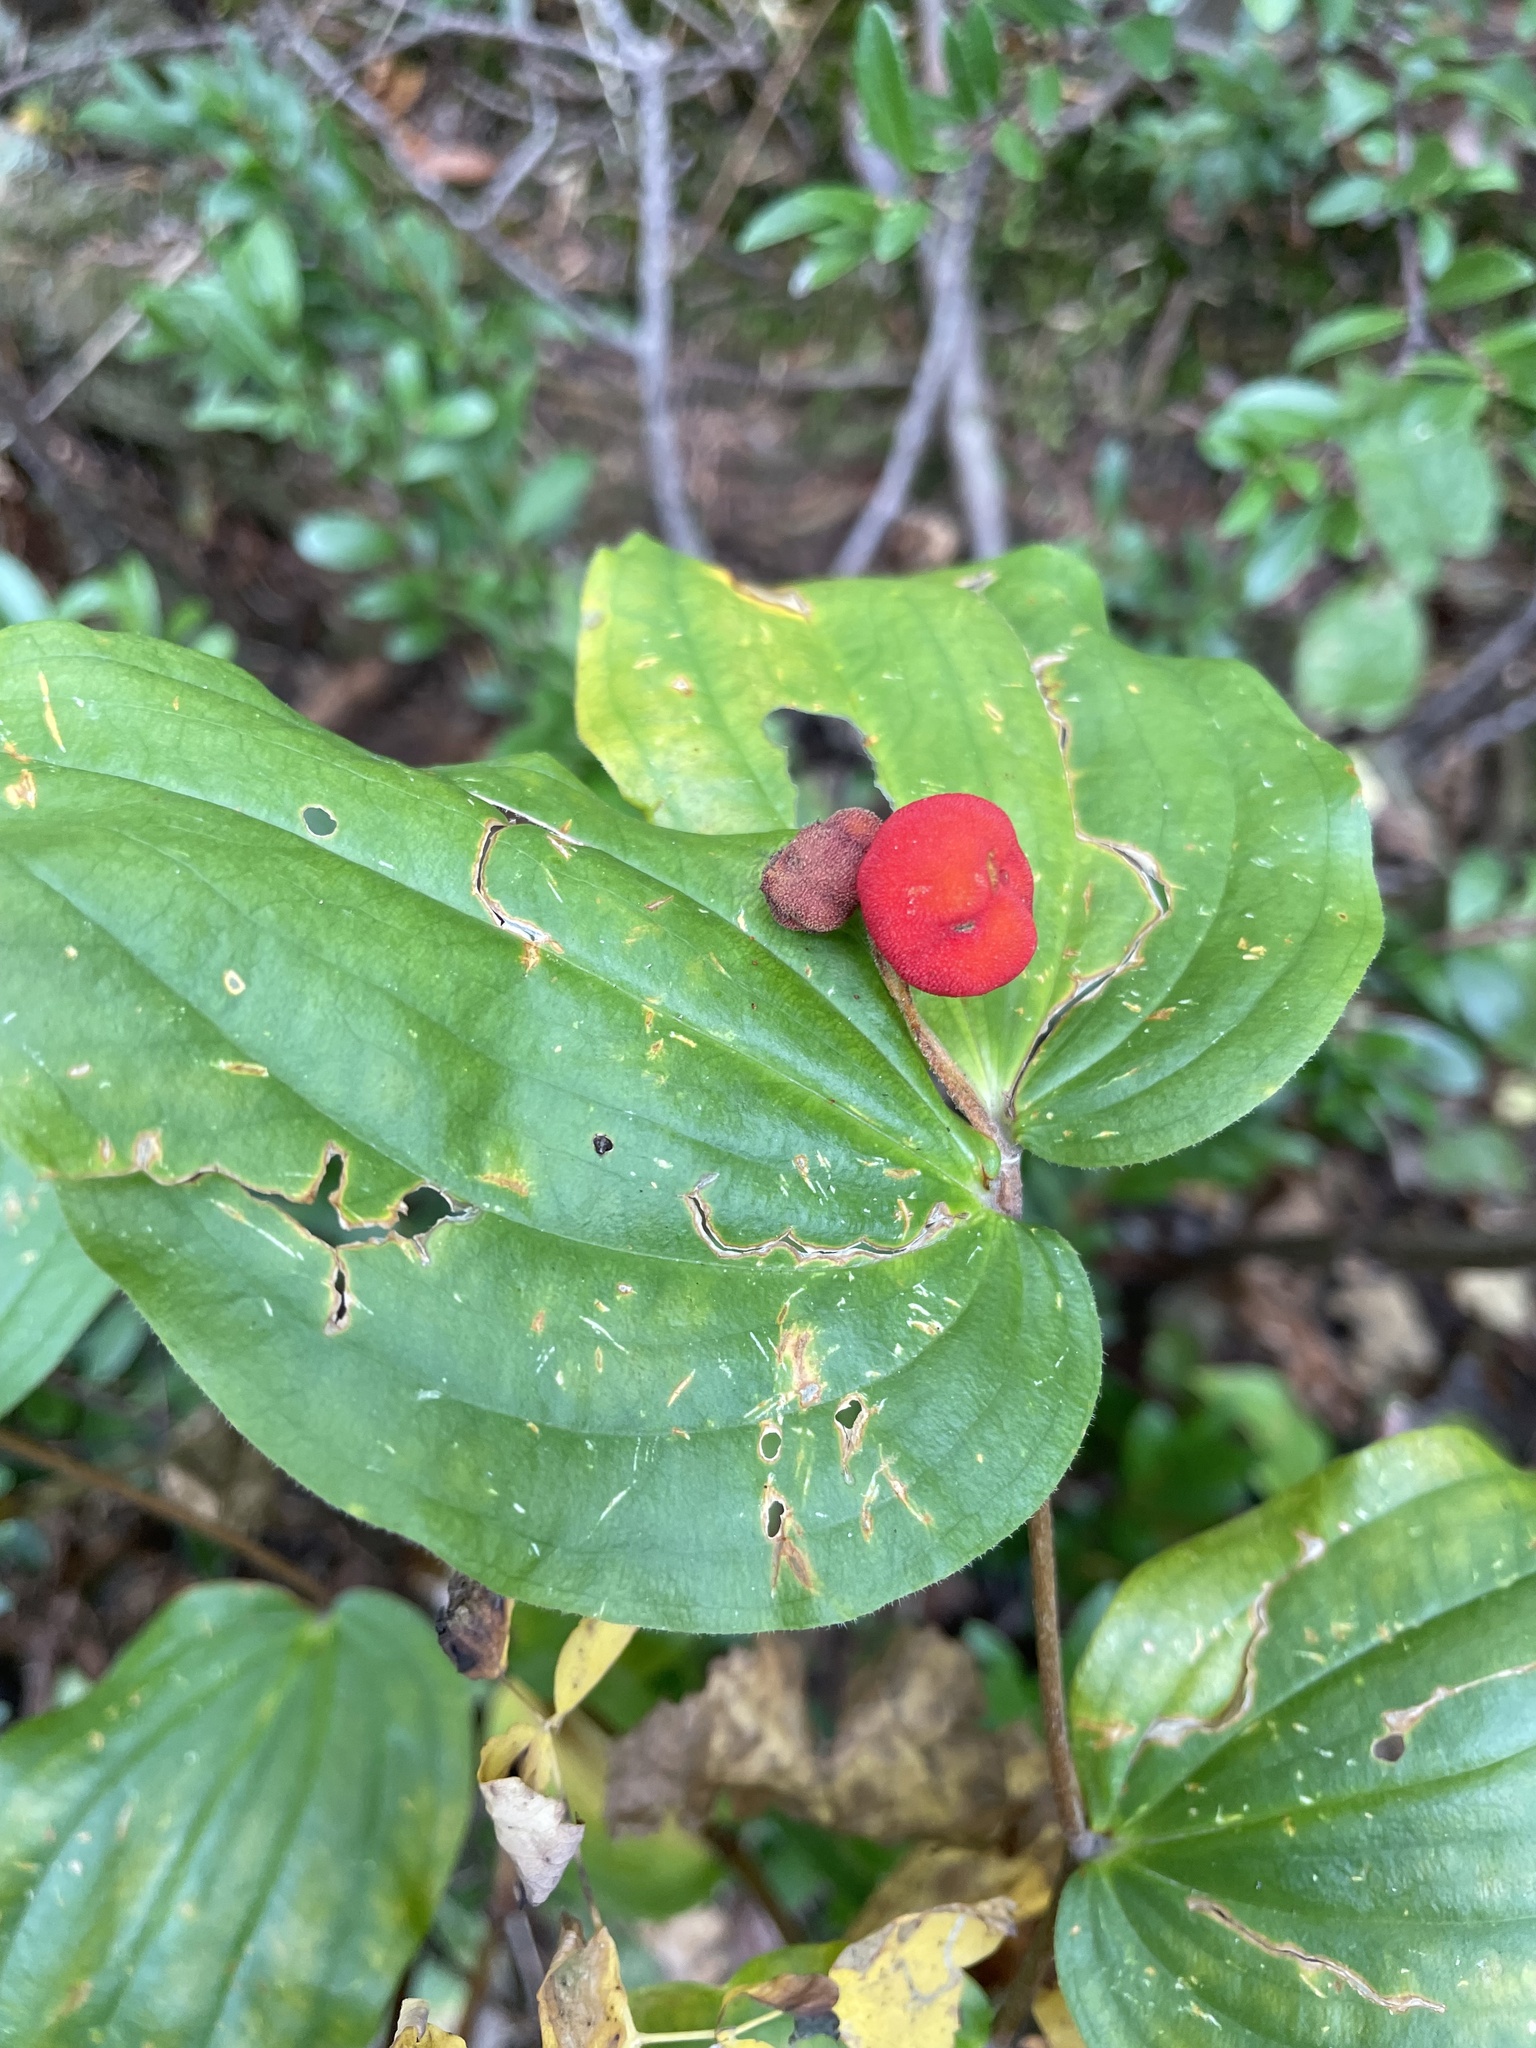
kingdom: Plantae
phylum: Tracheophyta
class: Liliopsida
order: Liliales
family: Liliaceae
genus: Prosartes
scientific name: Prosartes trachycarpa
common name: Rough-fruit fairy-bells
